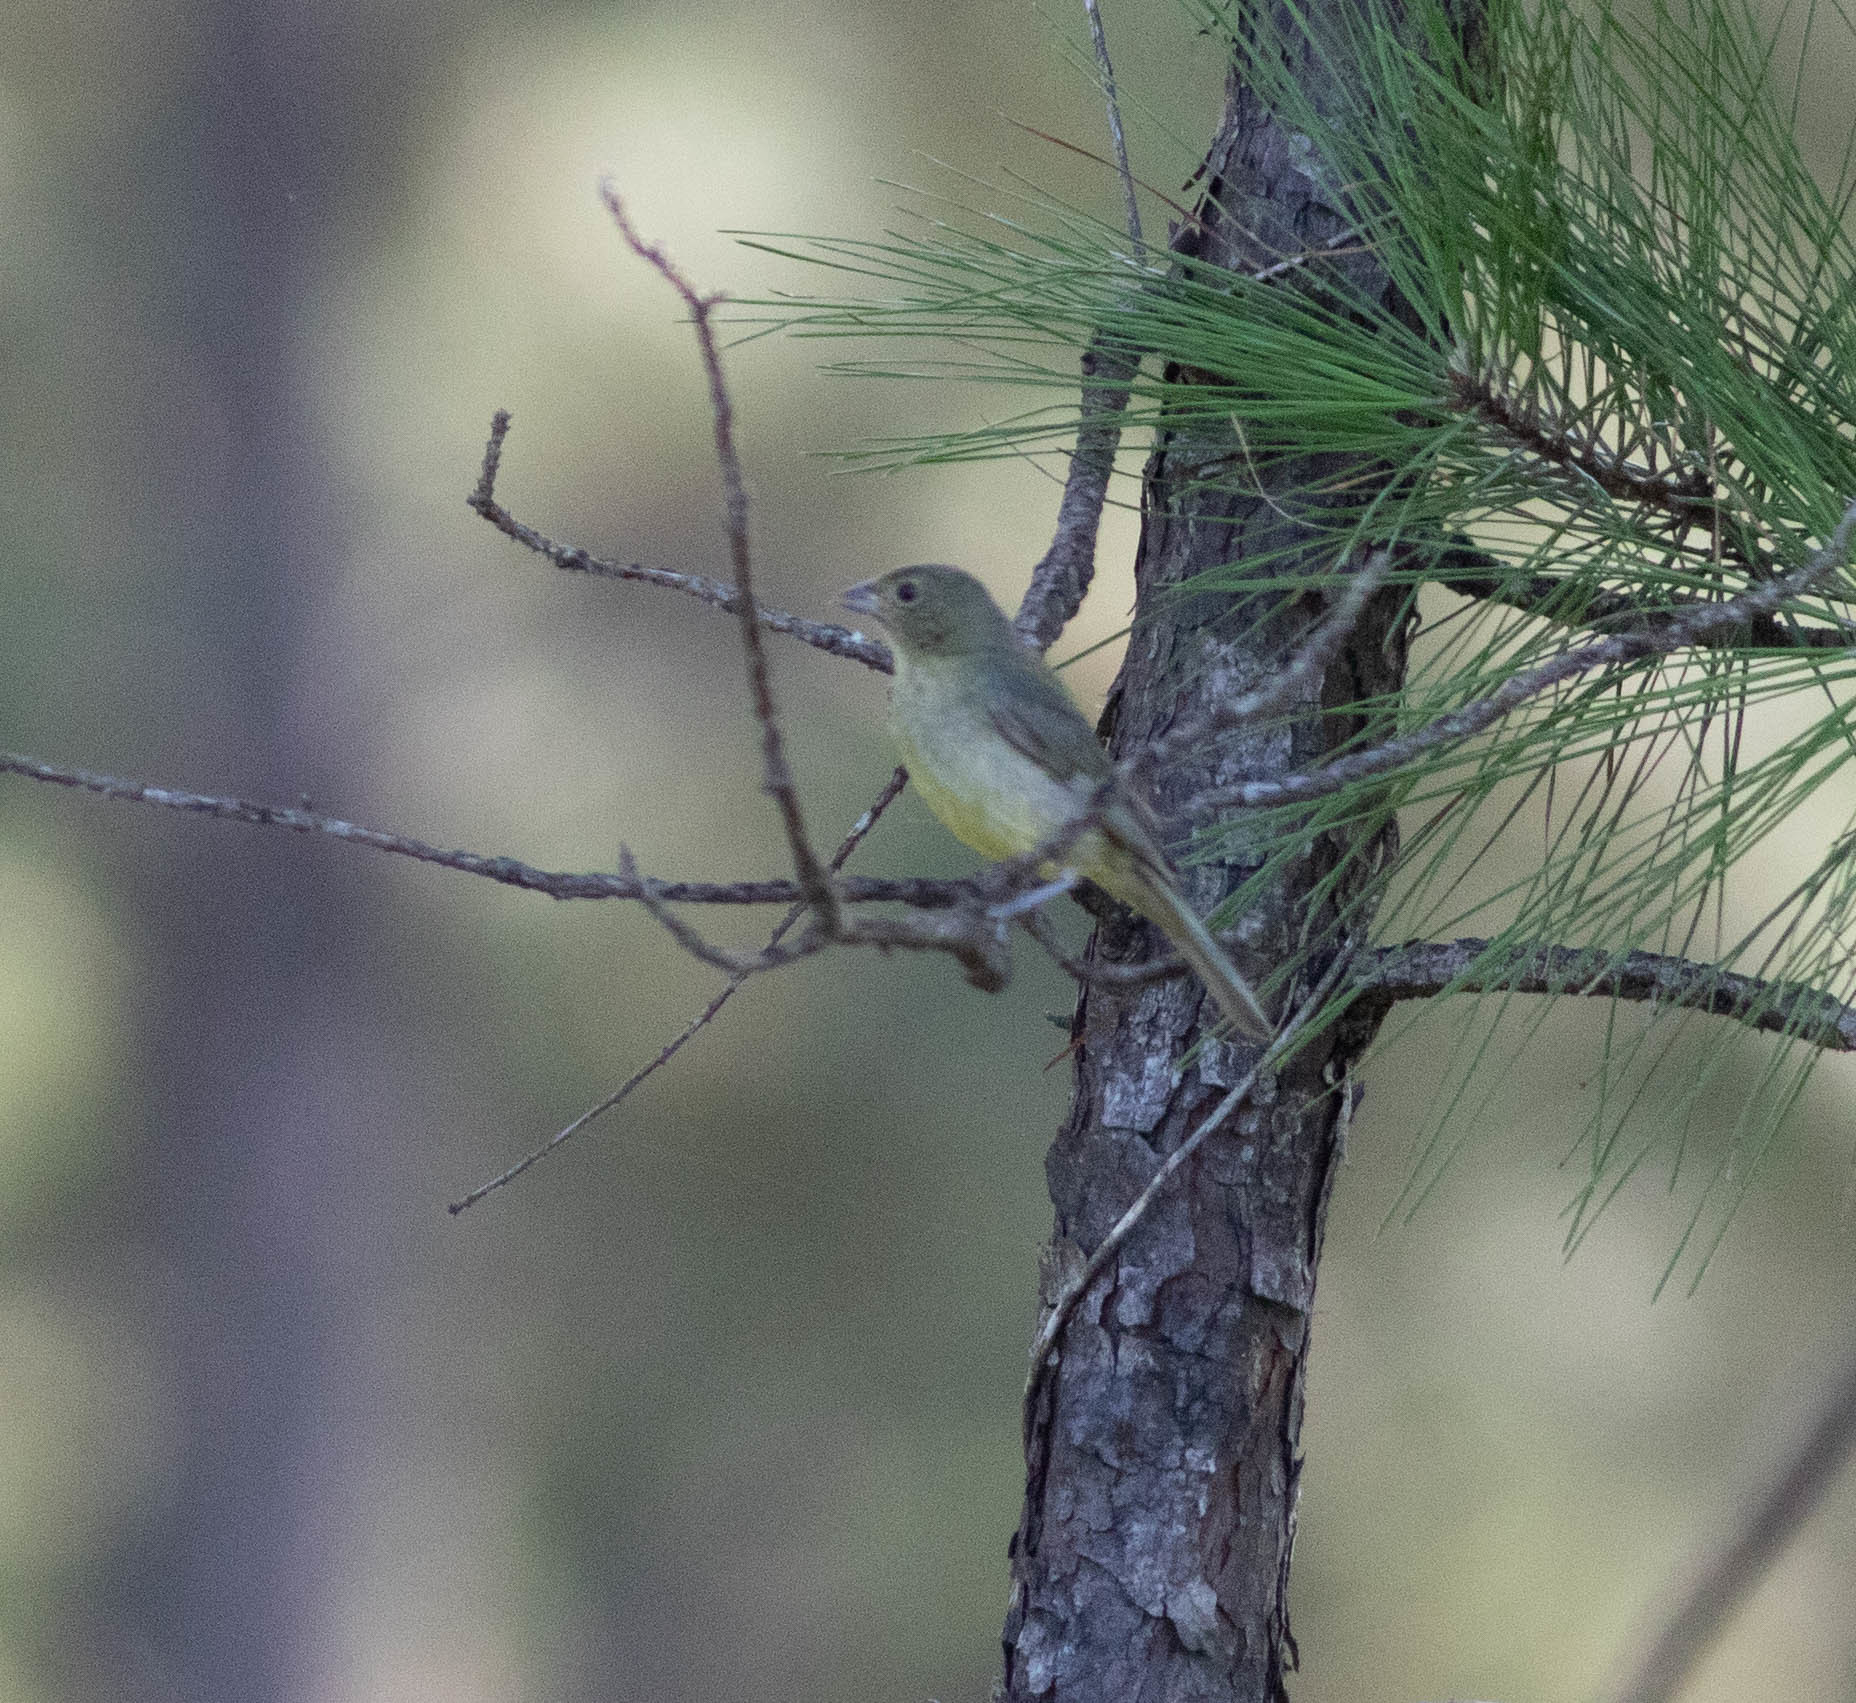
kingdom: Animalia
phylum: Chordata
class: Aves
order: Passeriformes
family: Cardinalidae
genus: Passerina
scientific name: Passerina ciris
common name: Painted bunting
